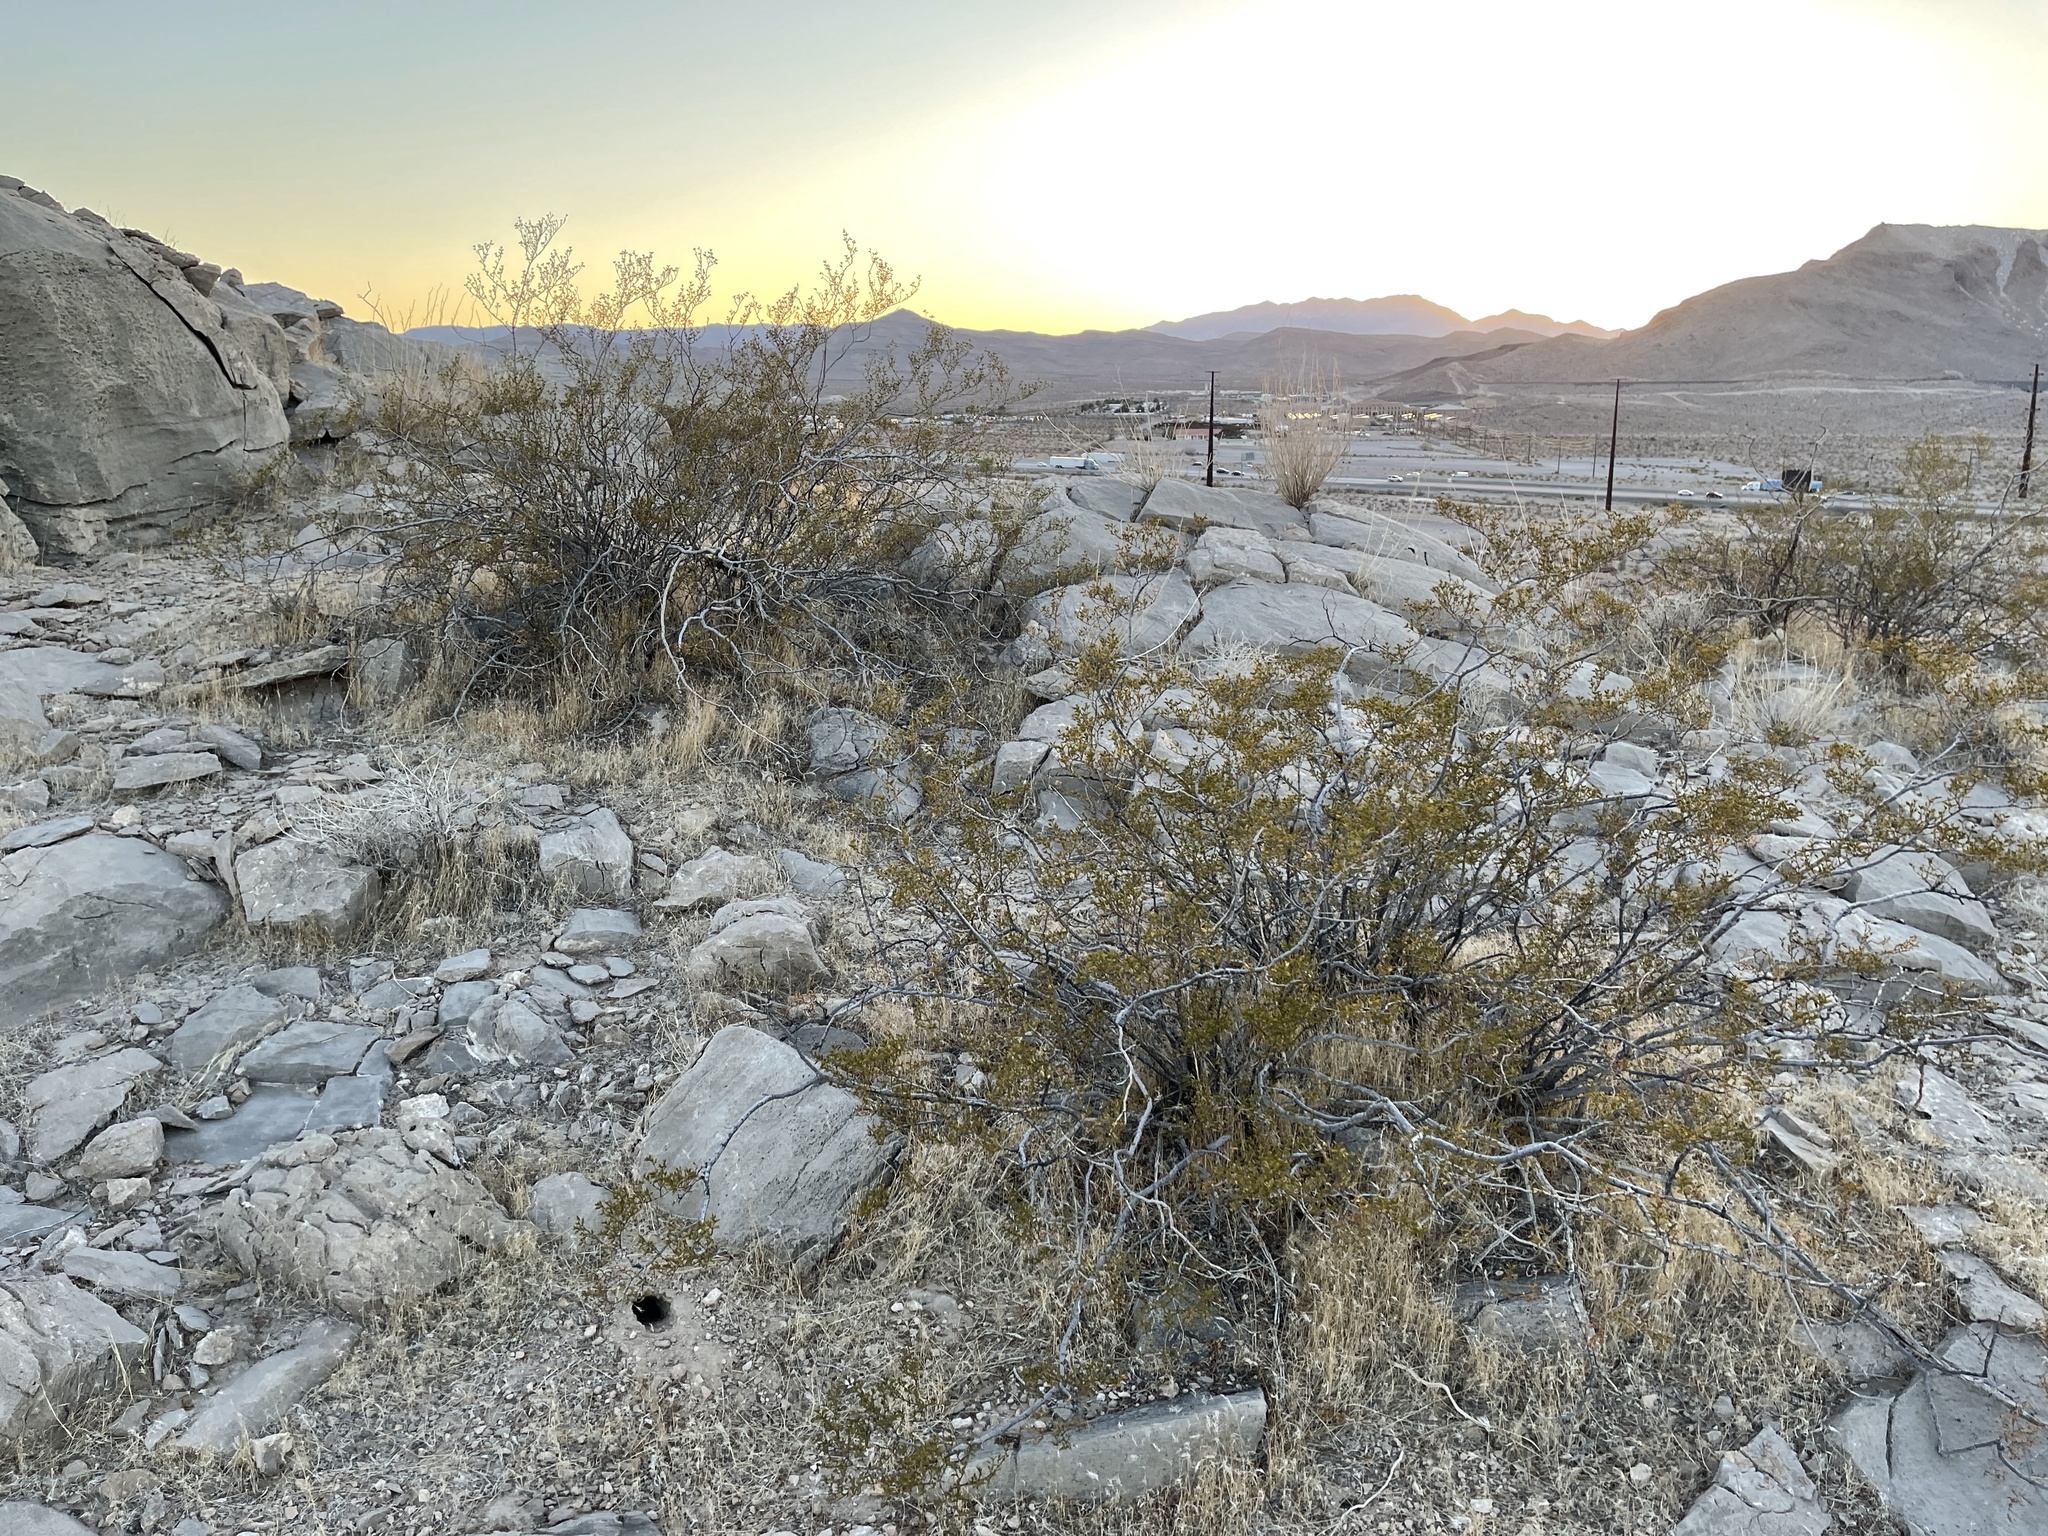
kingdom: Plantae
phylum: Tracheophyta
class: Magnoliopsida
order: Zygophyllales
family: Zygophyllaceae
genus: Larrea
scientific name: Larrea tridentata
